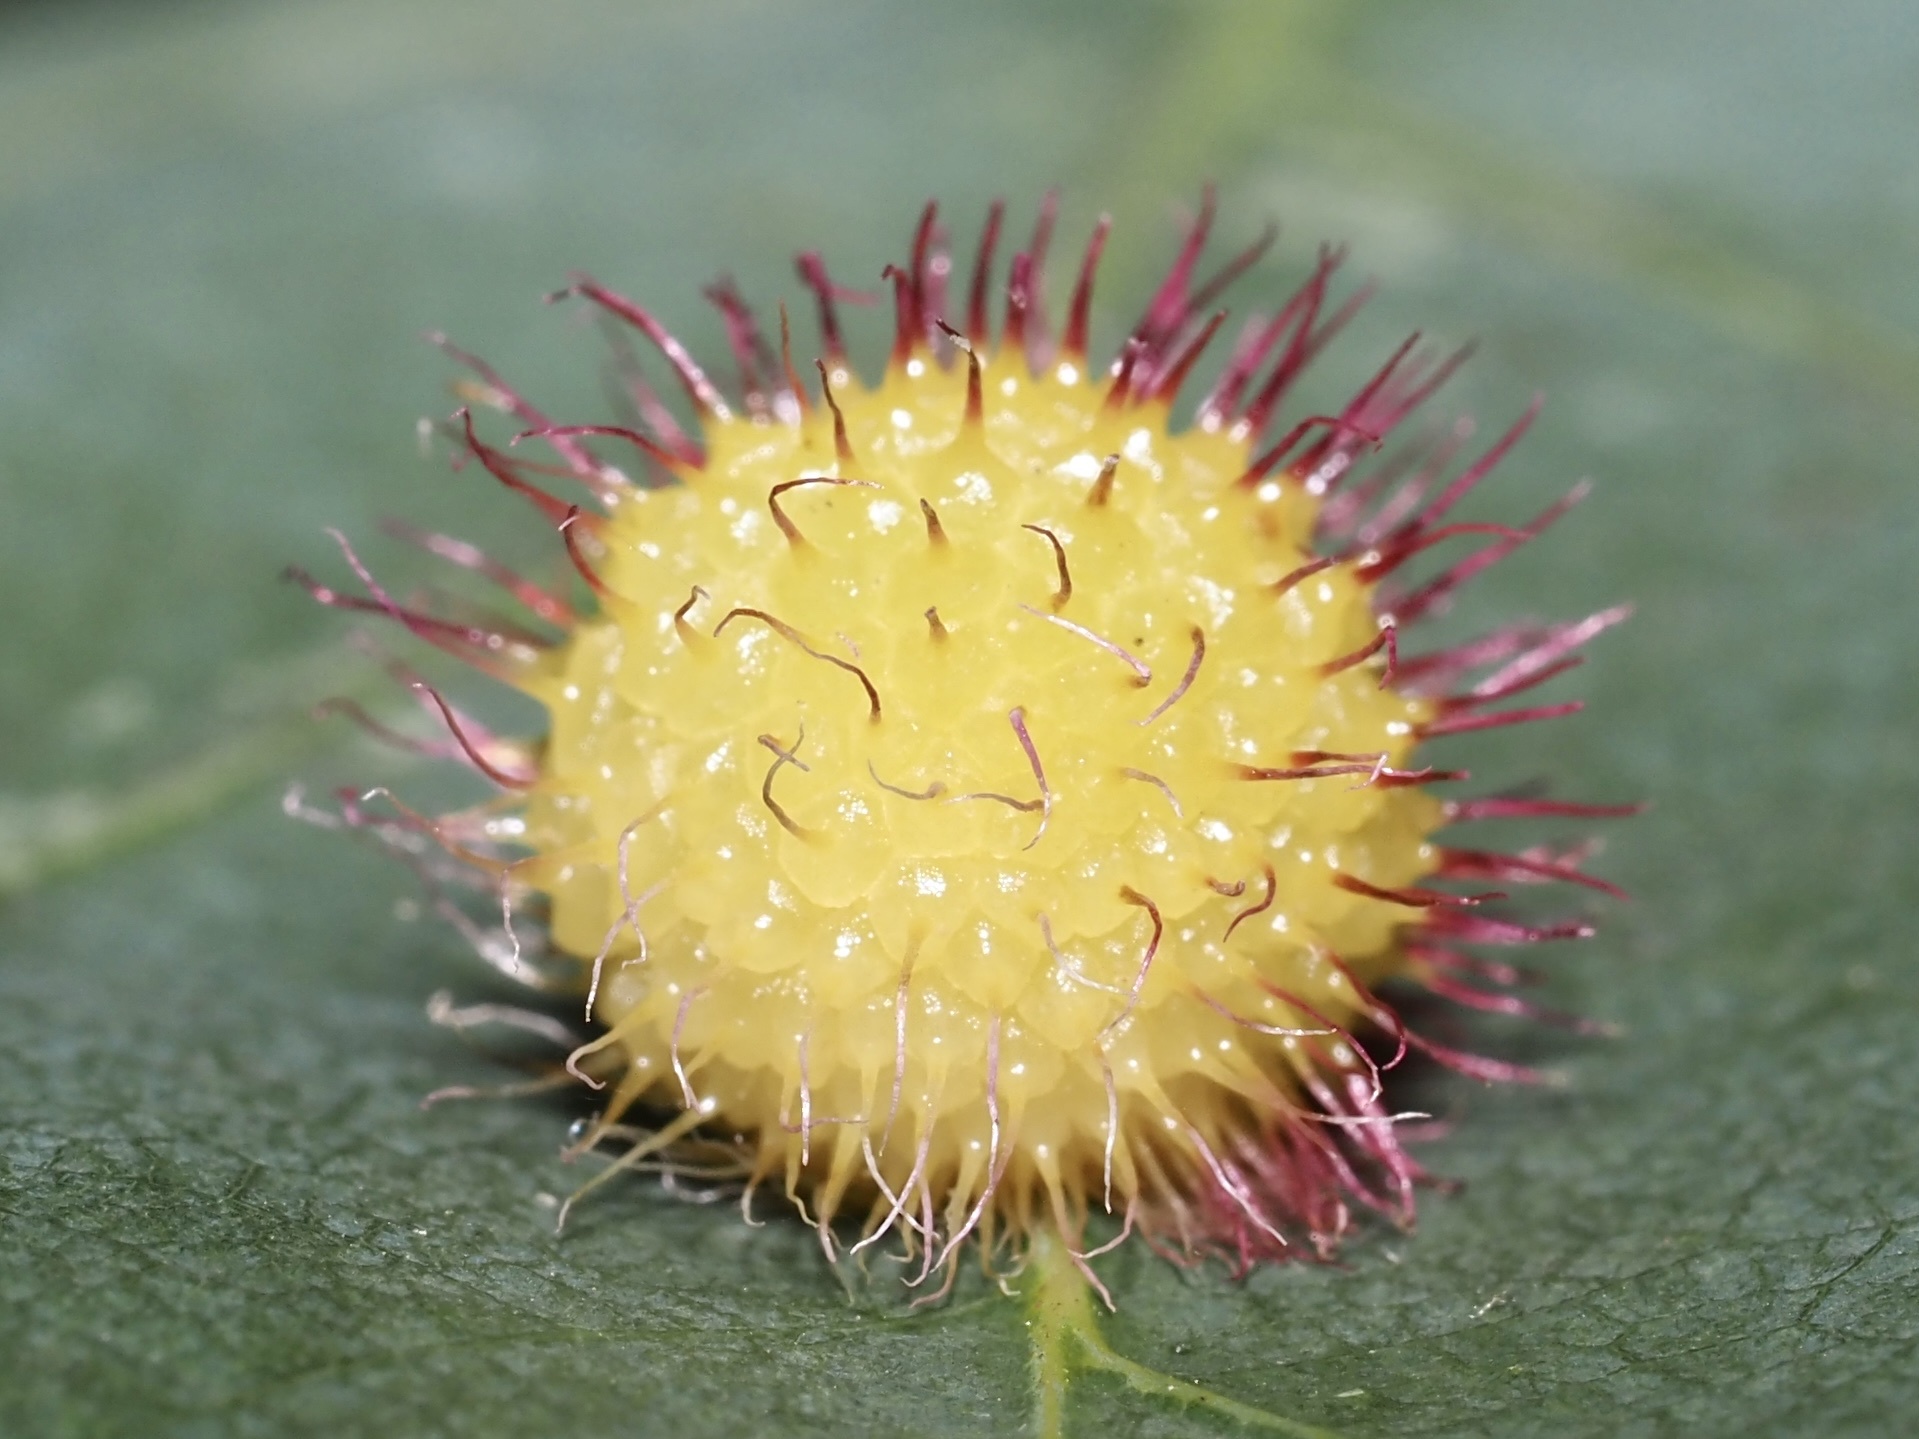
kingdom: Animalia
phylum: Arthropoda
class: Insecta
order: Hymenoptera
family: Cynipidae
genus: Acraspis
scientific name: Acraspis erinacei
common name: Hedgehog gall wasp
